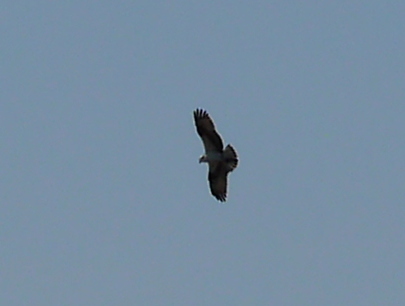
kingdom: Animalia
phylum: Chordata
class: Aves
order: Accipitriformes
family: Pandionidae
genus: Pandion
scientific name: Pandion haliaetus
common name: Osprey
